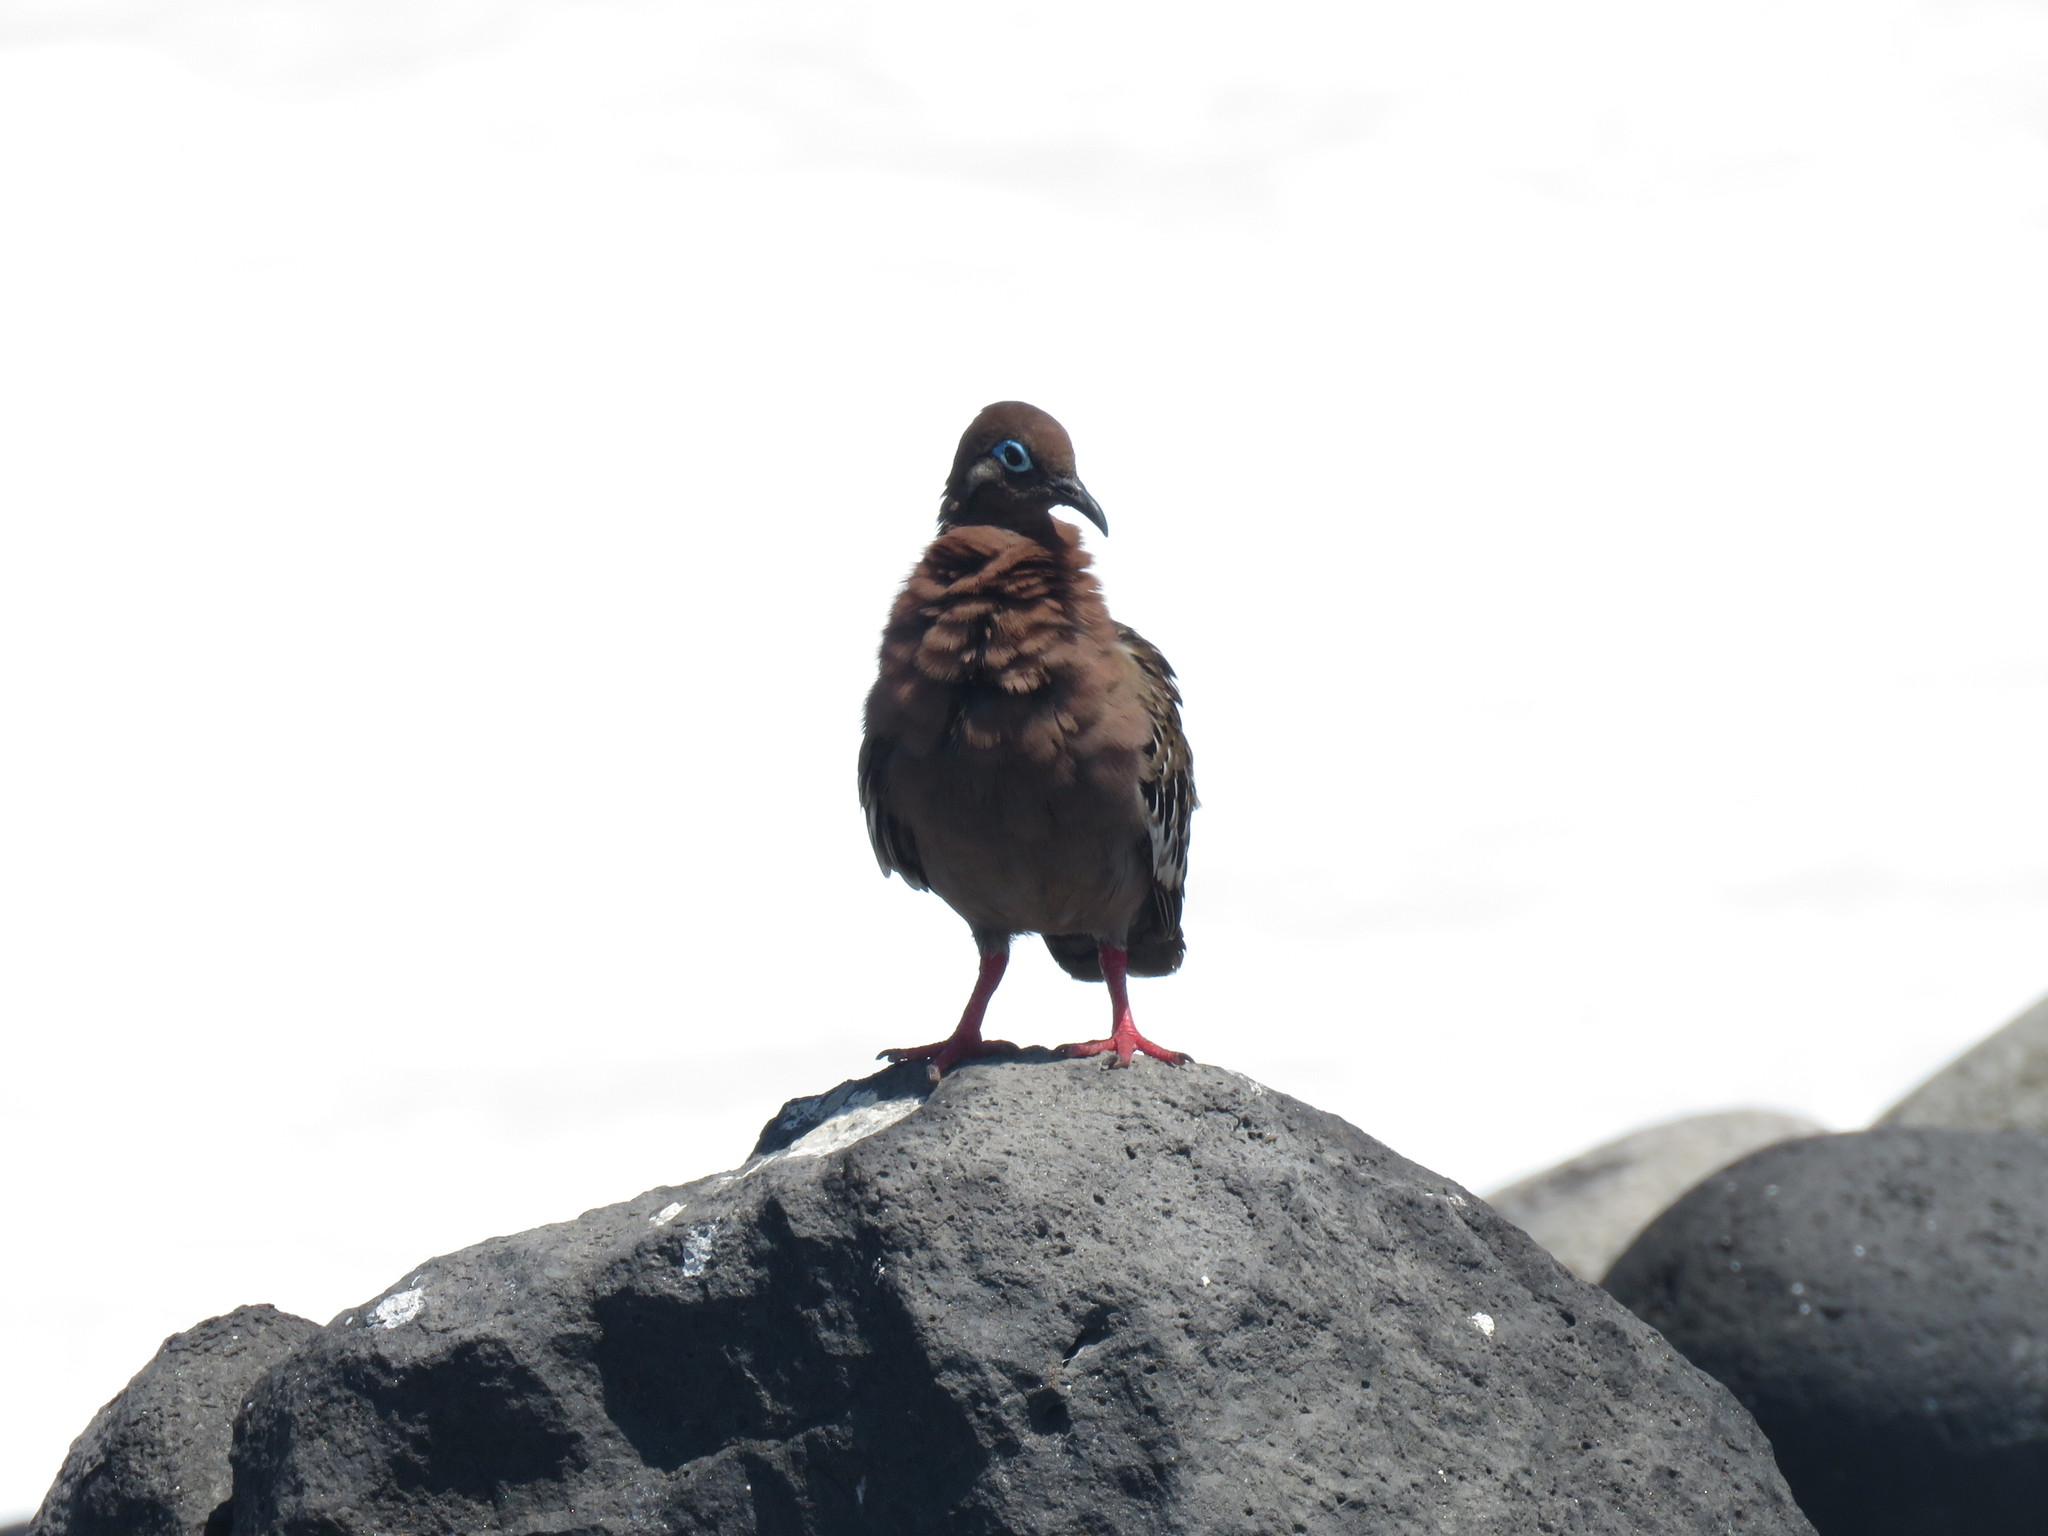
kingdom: Animalia
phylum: Chordata
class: Aves
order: Columbiformes
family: Columbidae
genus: Zenaida
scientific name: Zenaida galapagoensis
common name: Galapagos dove
